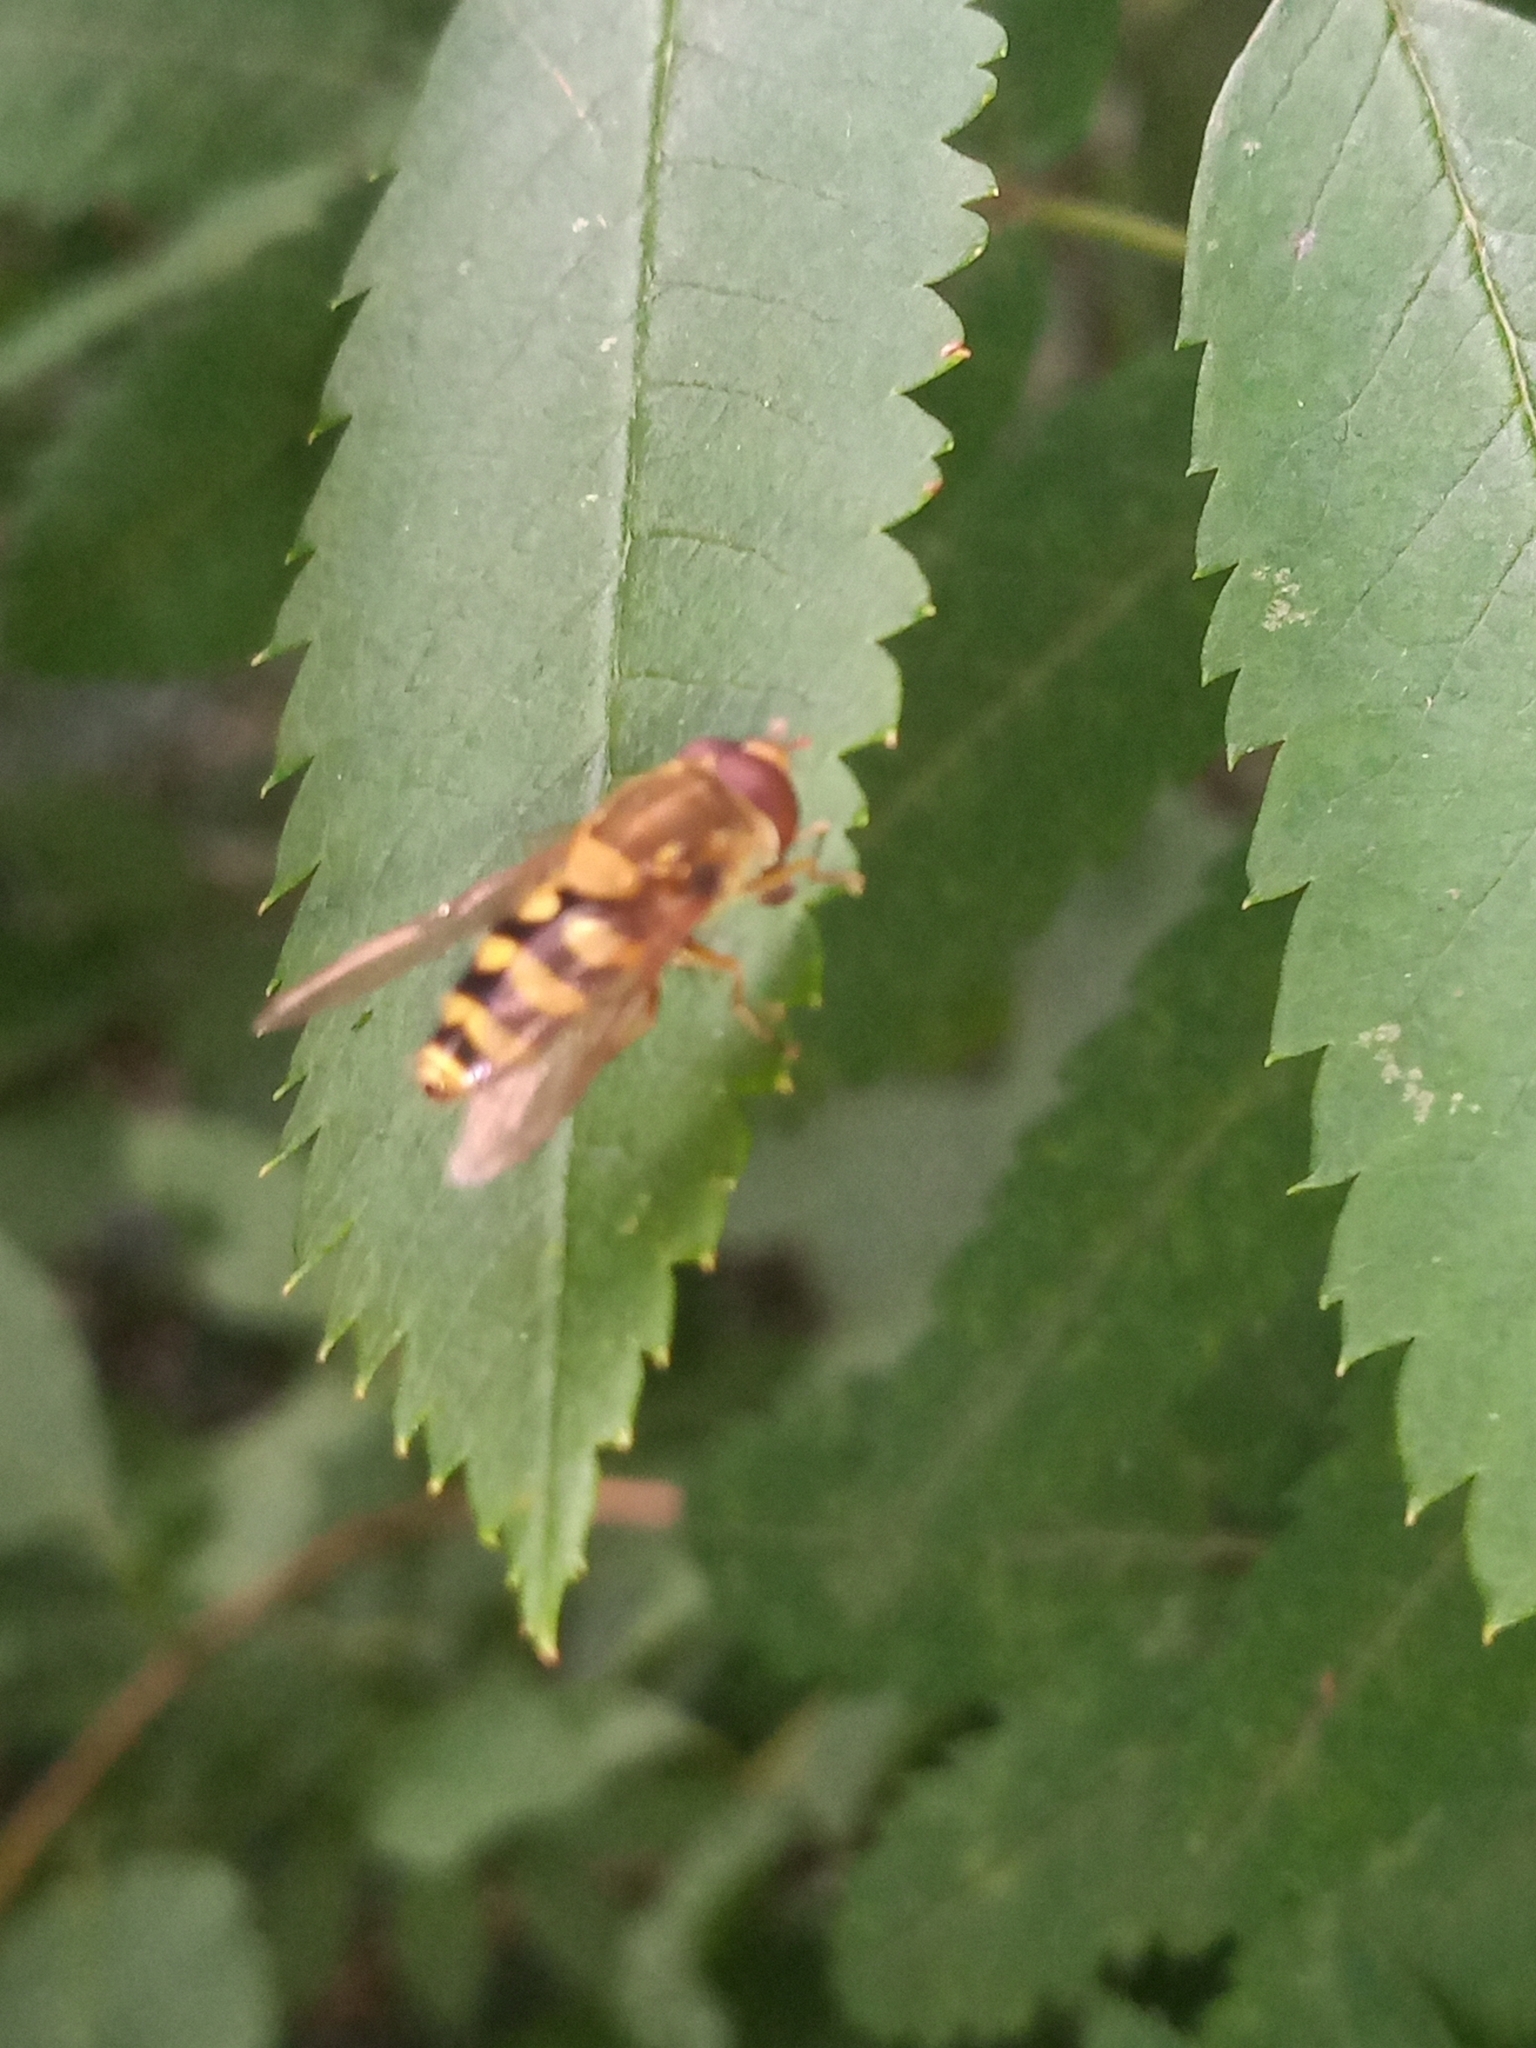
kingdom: Animalia
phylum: Arthropoda
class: Insecta
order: Diptera
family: Syrphidae
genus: Syrphus
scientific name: Syrphus
